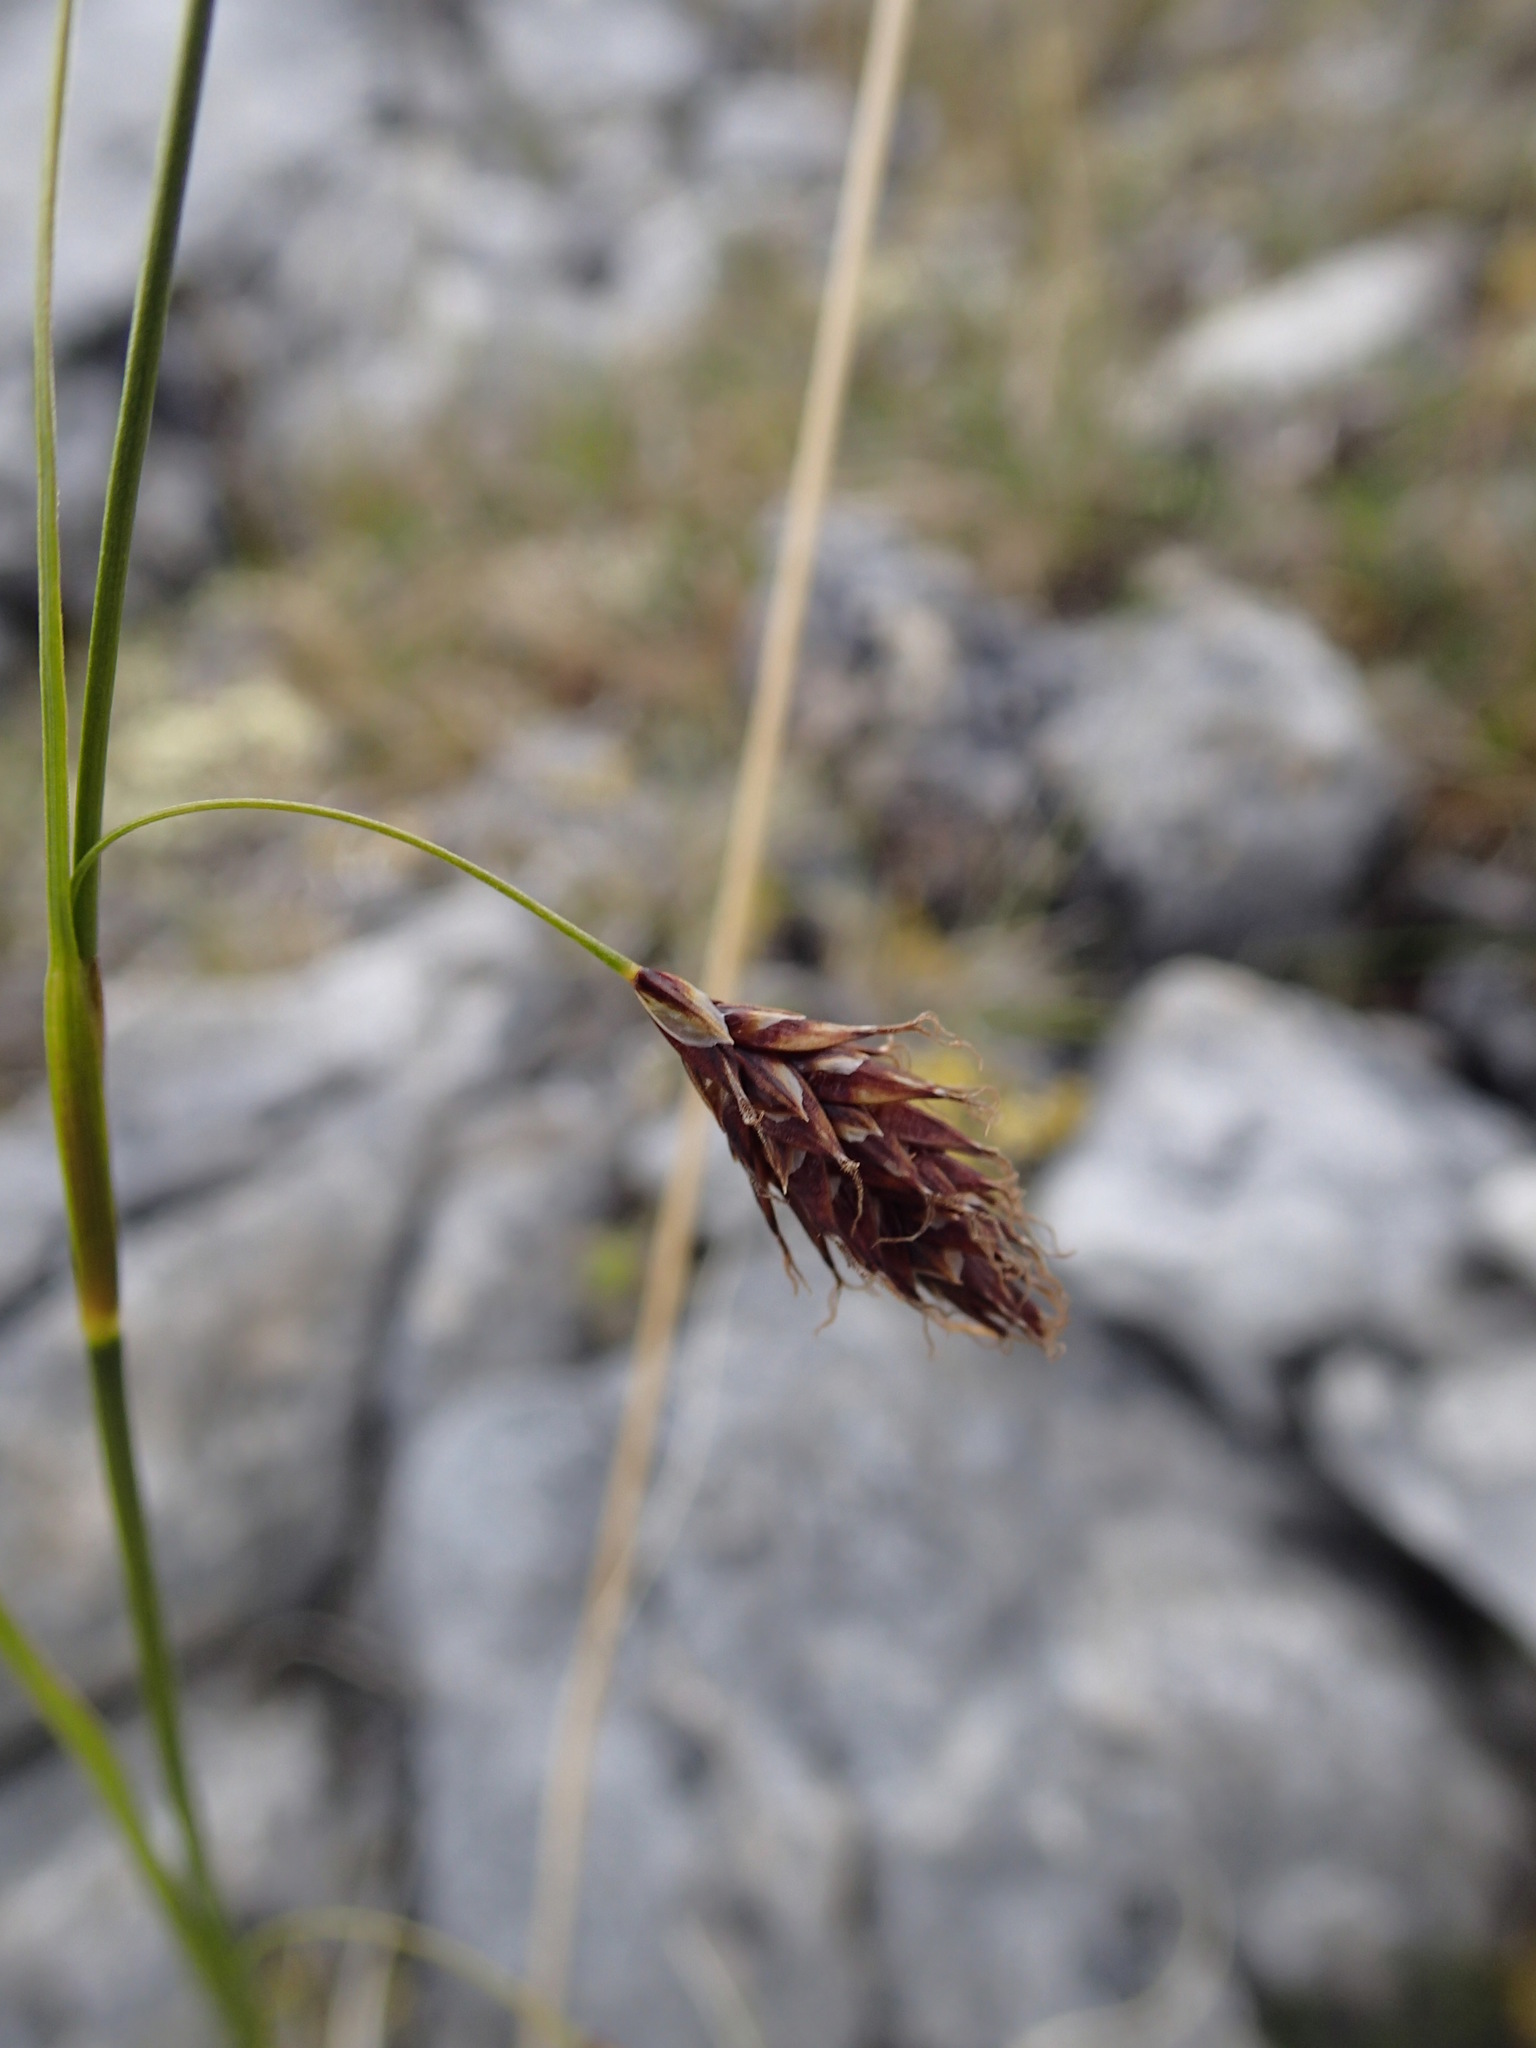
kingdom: Plantae
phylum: Tracheophyta
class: Liliopsida
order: Poales
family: Cyperaceae
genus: Carex
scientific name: Carex petricosa
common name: Rock sedge
